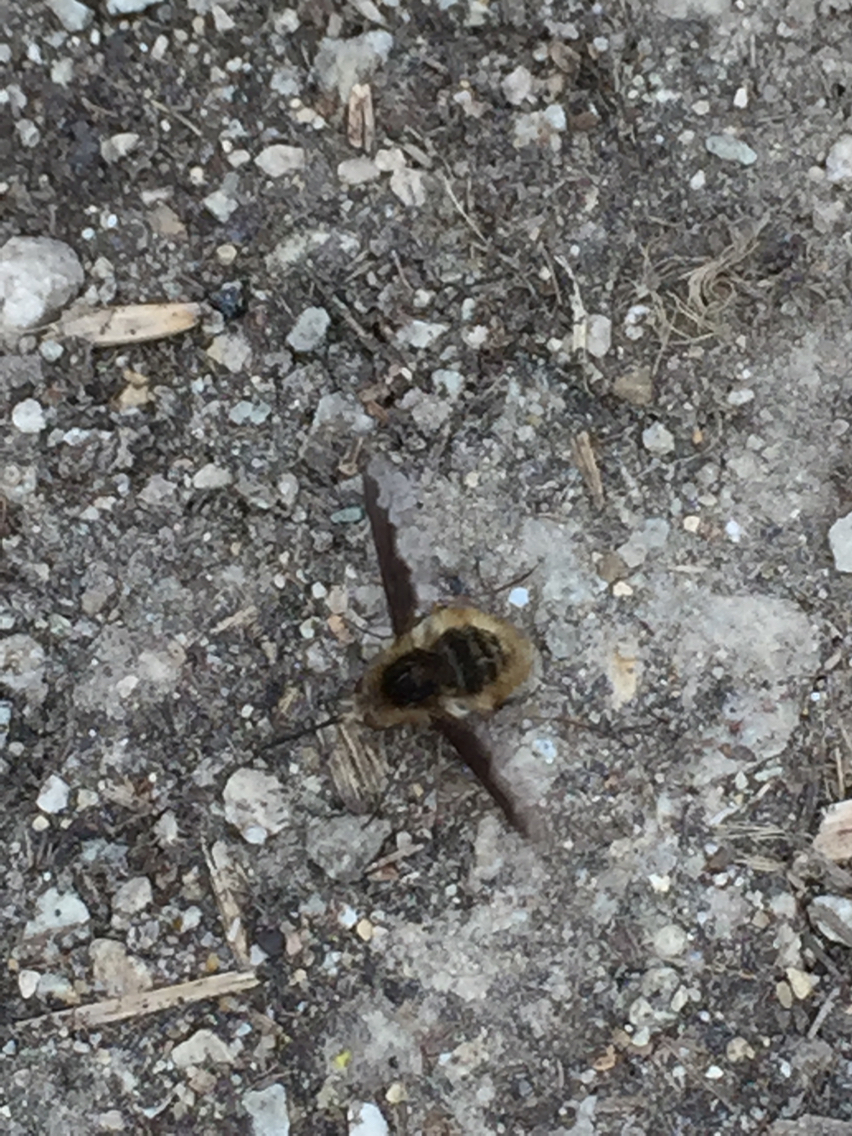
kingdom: Animalia
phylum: Arthropoda
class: Insecta
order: Diptera
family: Bombyliidae
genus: Bombylius
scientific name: Bombylius major
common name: Bee fly
